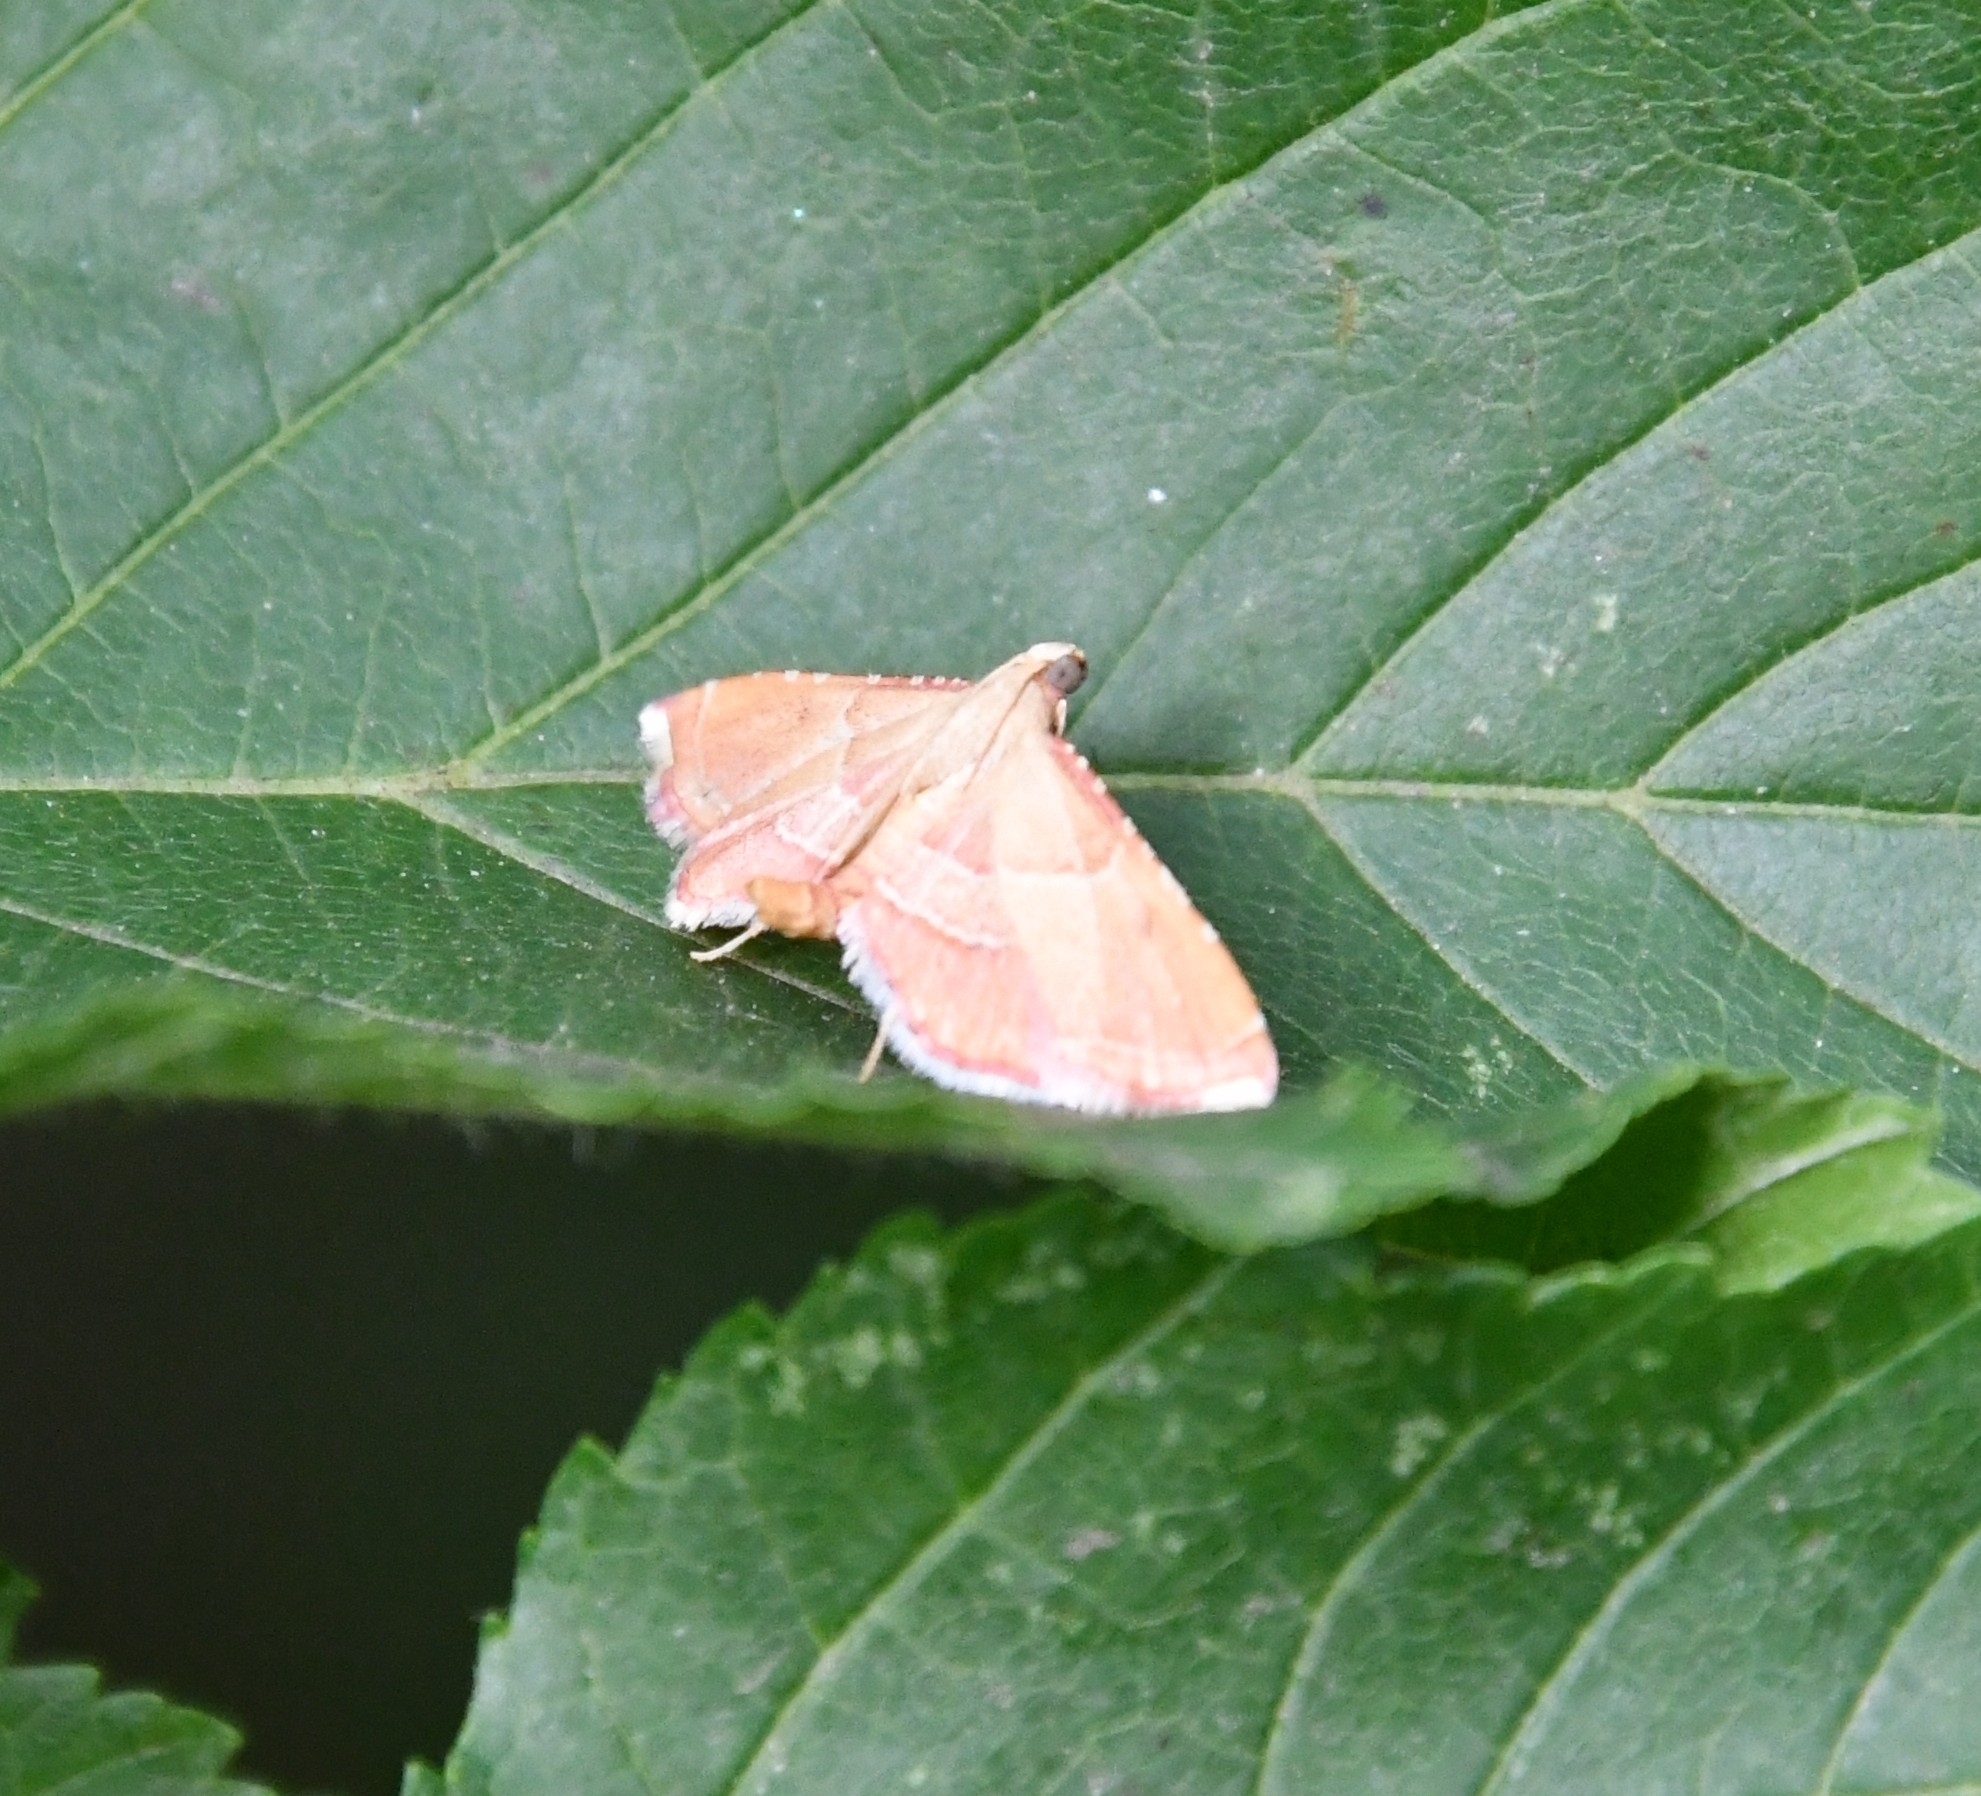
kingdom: Animalia
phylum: Arthropoda
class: Insecta
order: Lepidoptera
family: Pyralidae
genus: Endotricha
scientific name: Endotricha flammealis
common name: Rosy tabby
